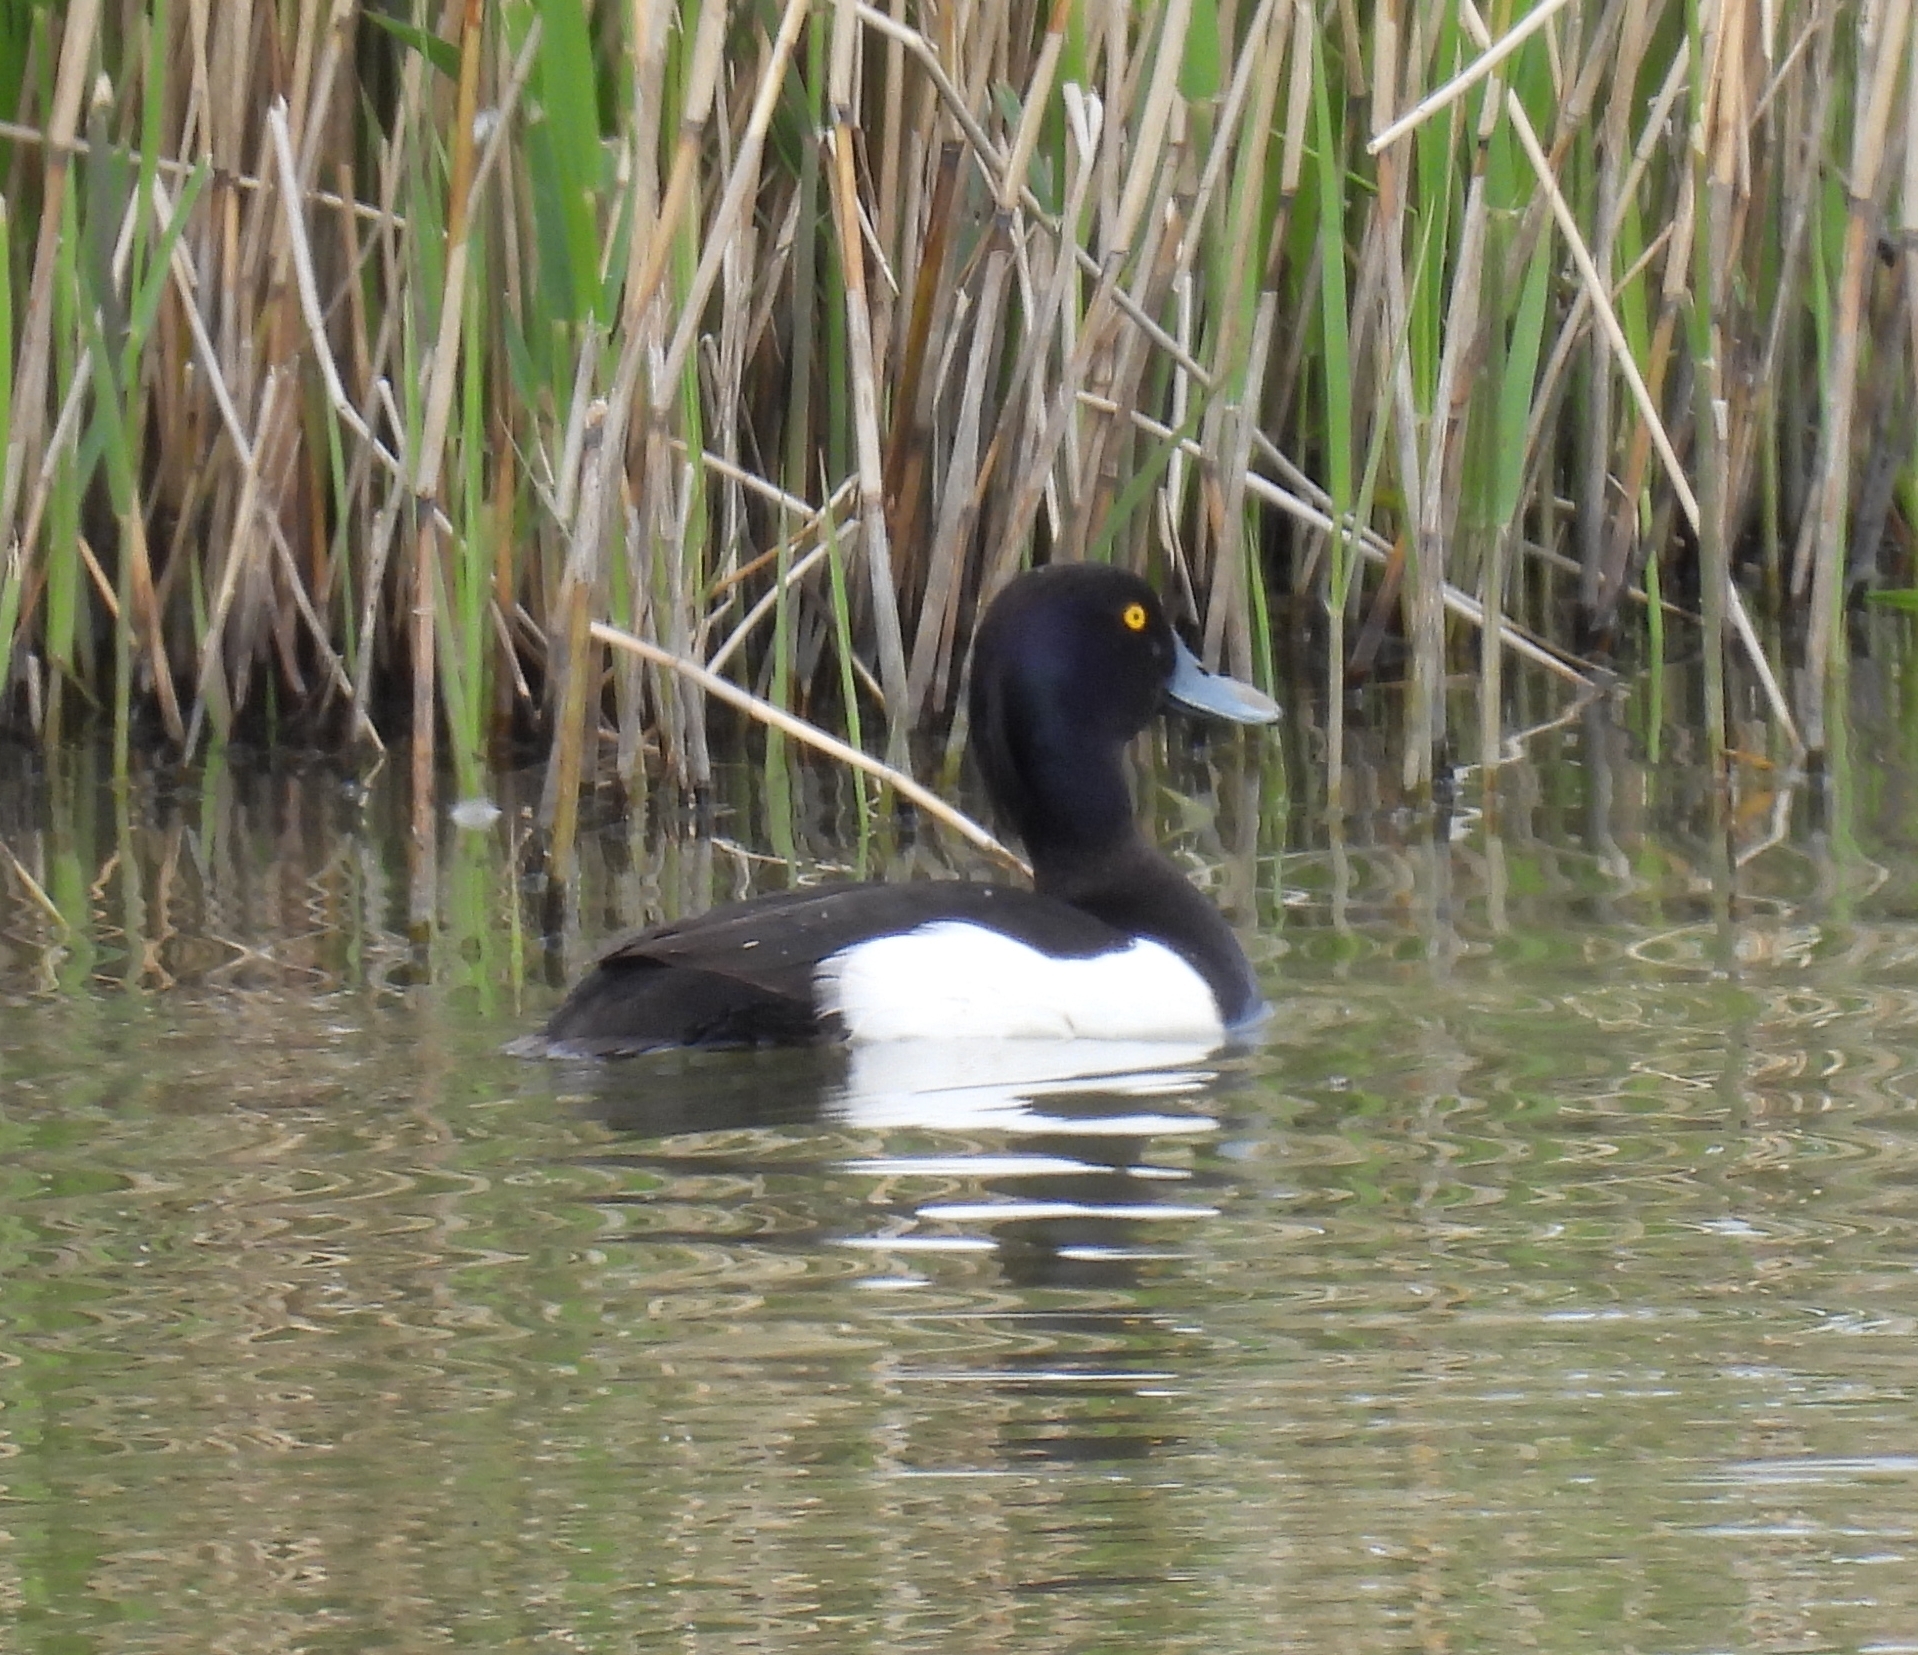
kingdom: Animalia
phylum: Chordata
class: Aves
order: Anseriformes
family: Anatidae
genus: Aythya
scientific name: Aythya fuligula
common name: Tufted duck
